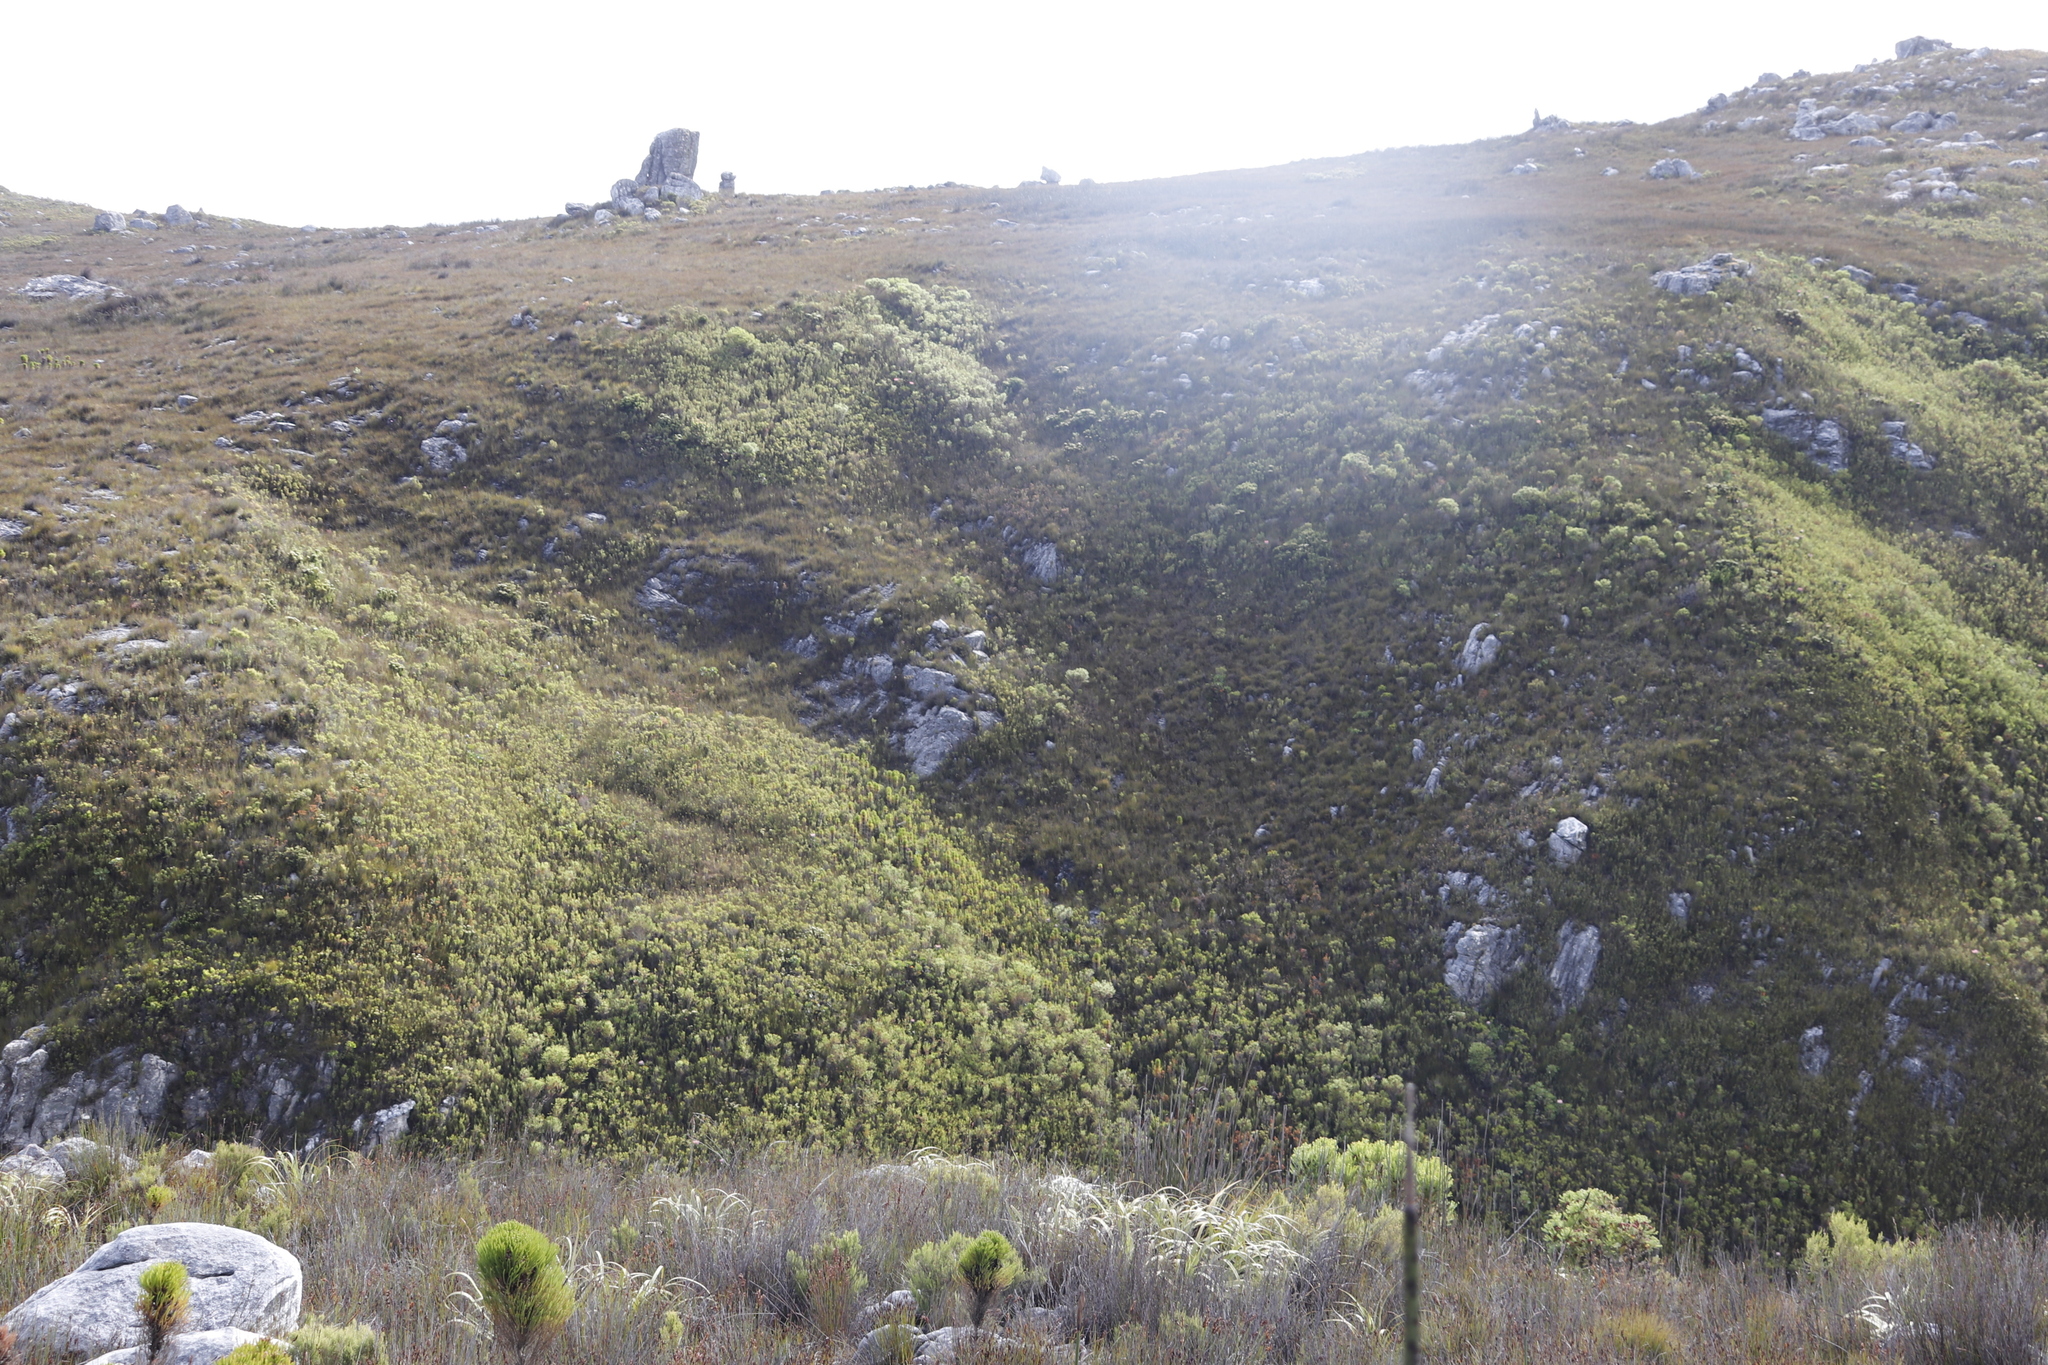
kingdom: Plantae
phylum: Tracheophyta
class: Magnoliopsida
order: Proteales
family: Proteaceae
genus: Protea
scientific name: Protea cynaroides
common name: King protea
